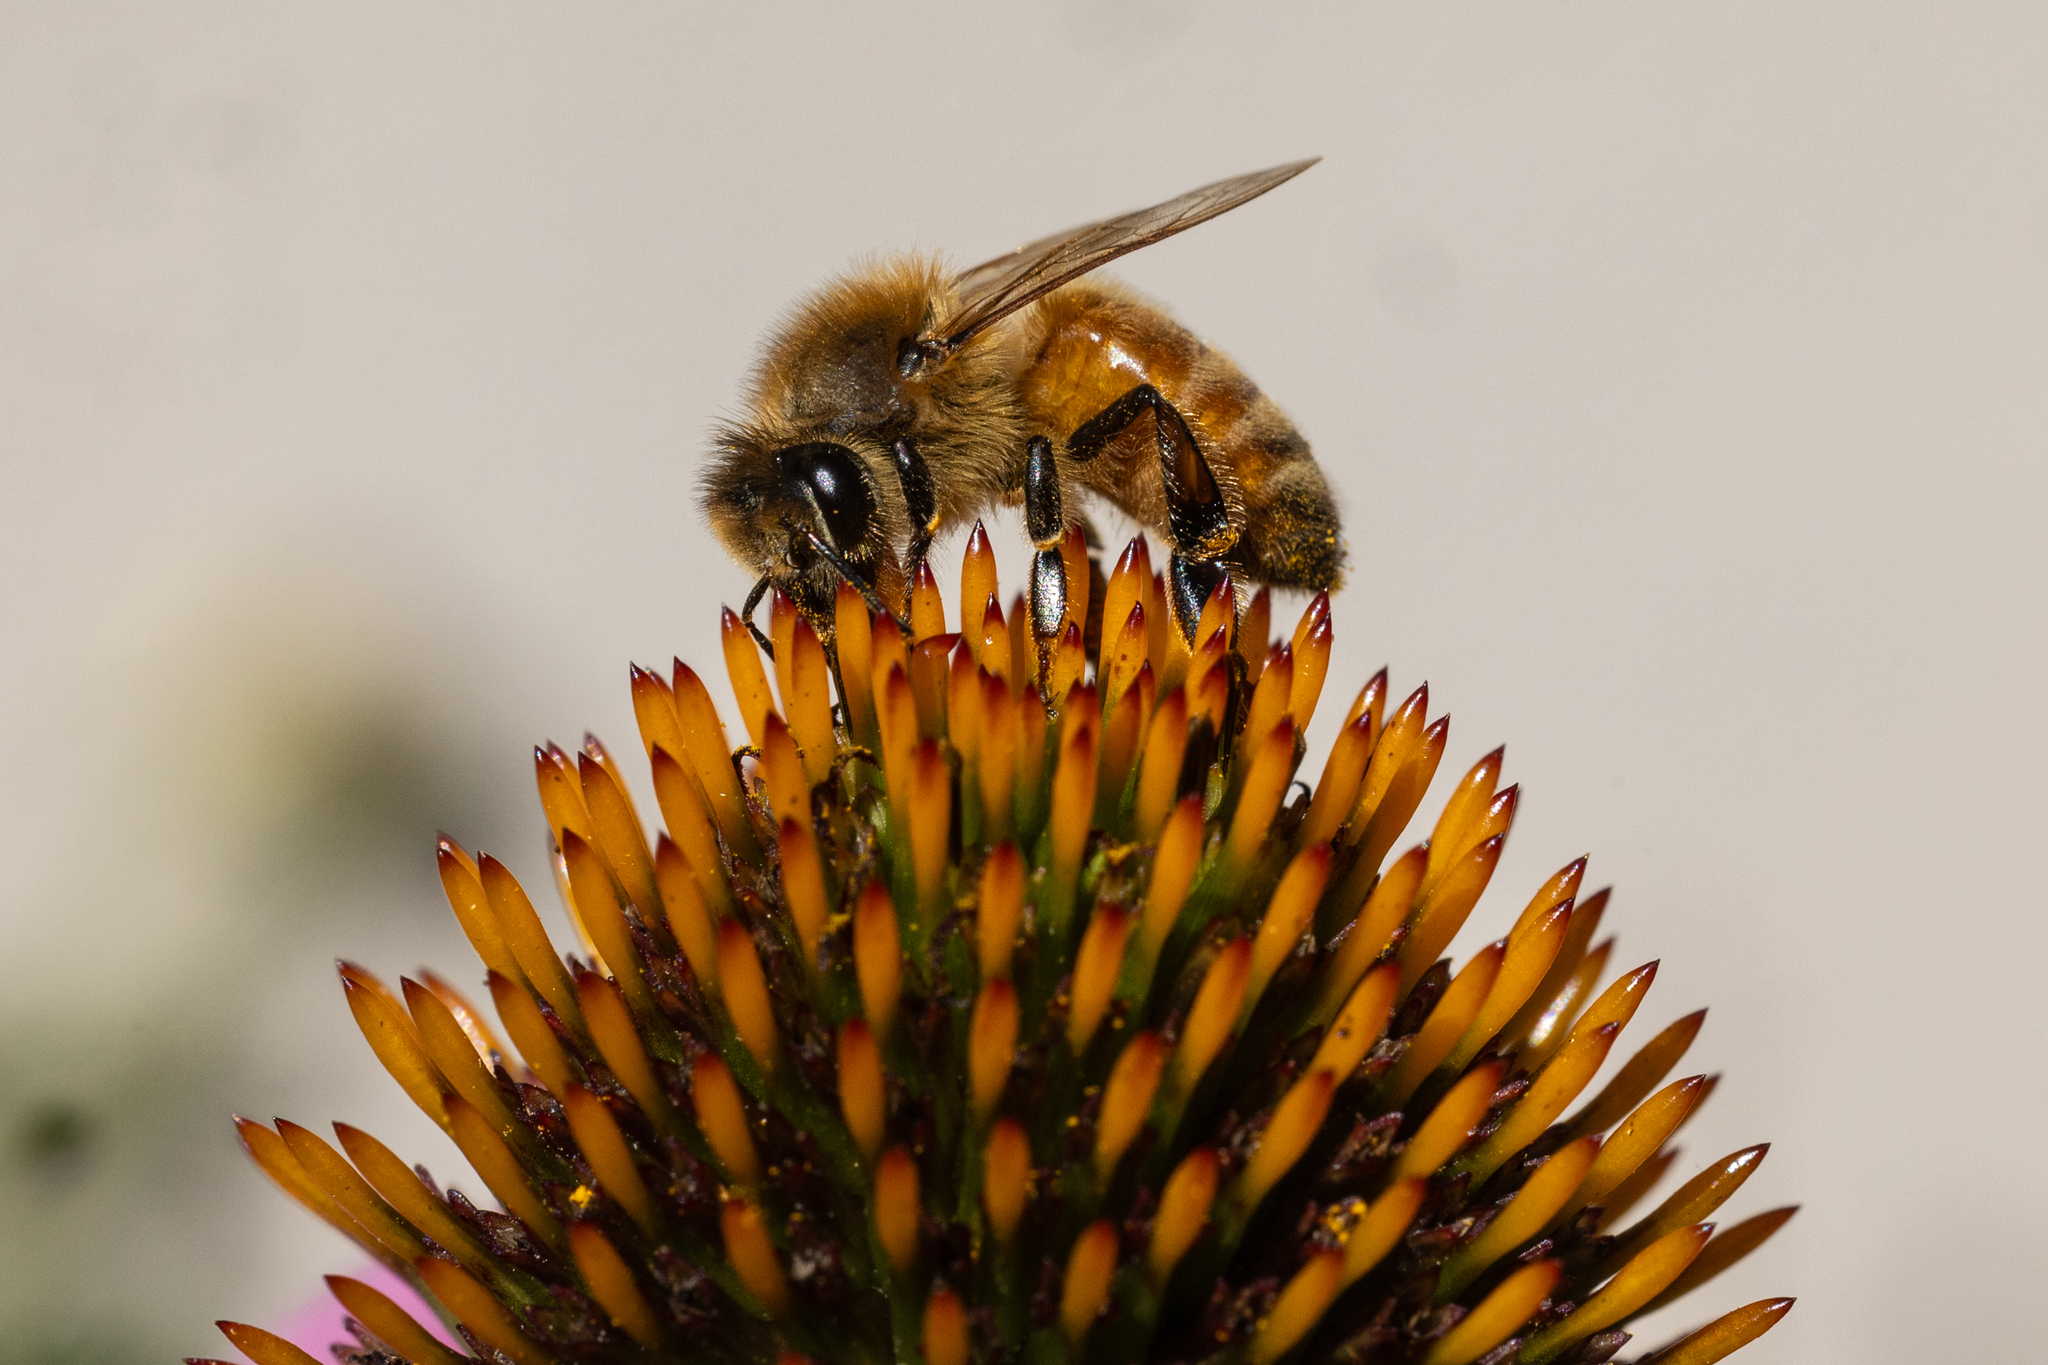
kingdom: Animalia
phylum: Arthropoda
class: Insecta
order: Hymenoptera
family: Apidae
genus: Apis
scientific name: Apis mellifera
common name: Honey bee
